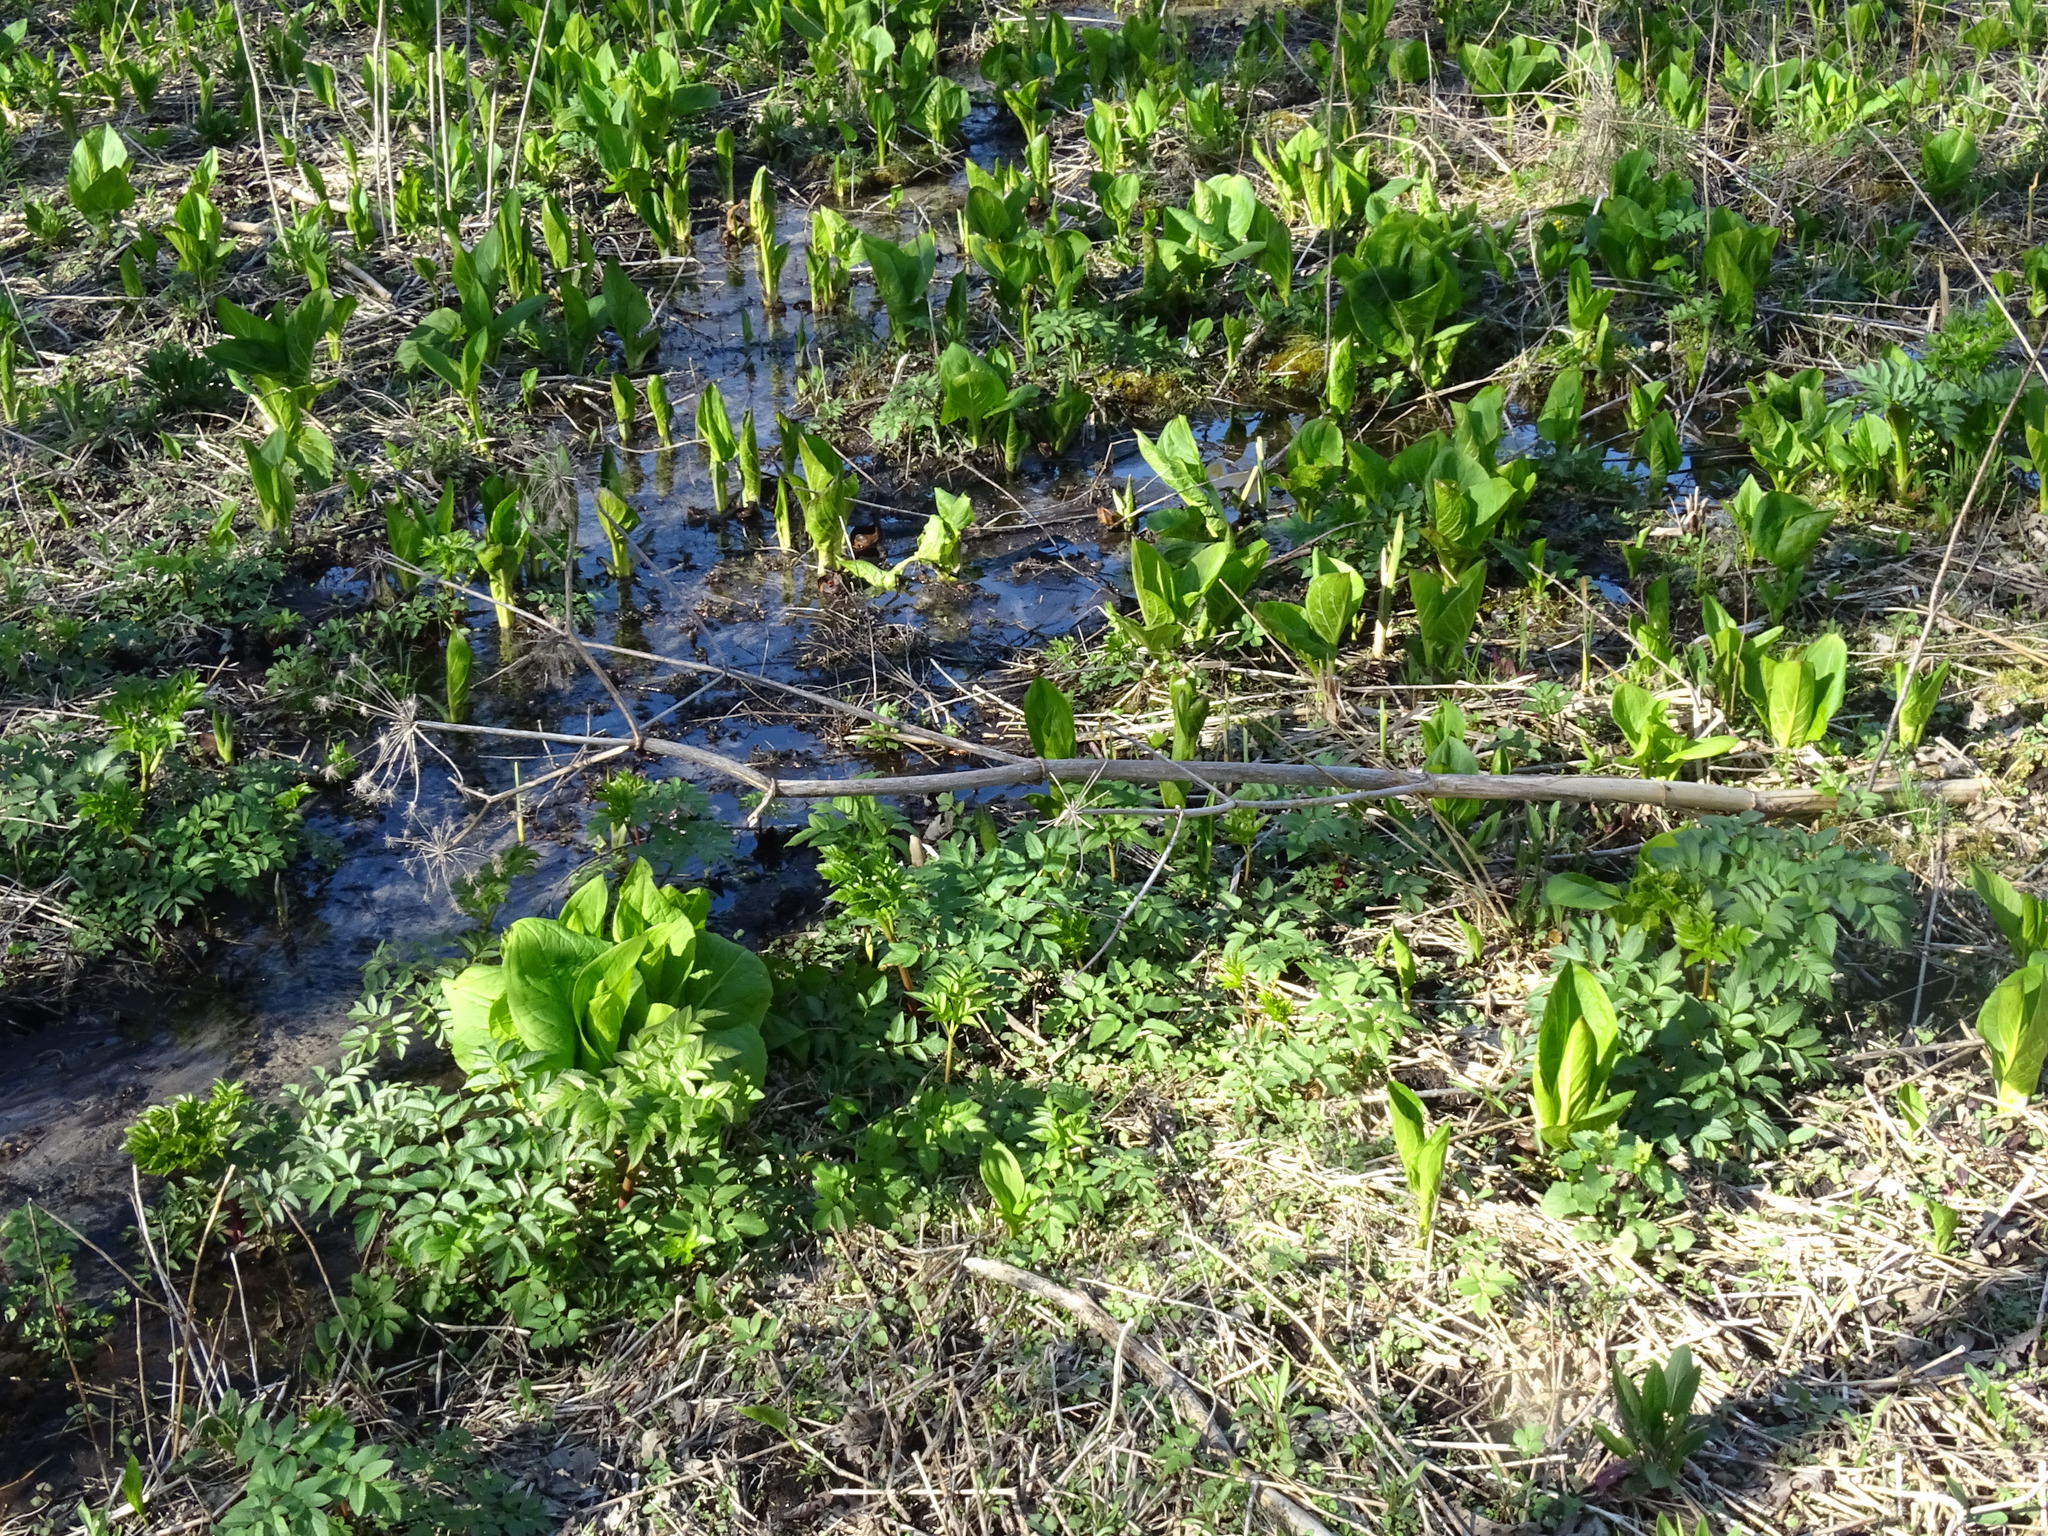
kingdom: Plantae
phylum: Tracheophyta
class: Magnoliopsida
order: Apiales
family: Apiaceae
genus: Angelica
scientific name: Angelica atropurpurea
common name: Great angelica
